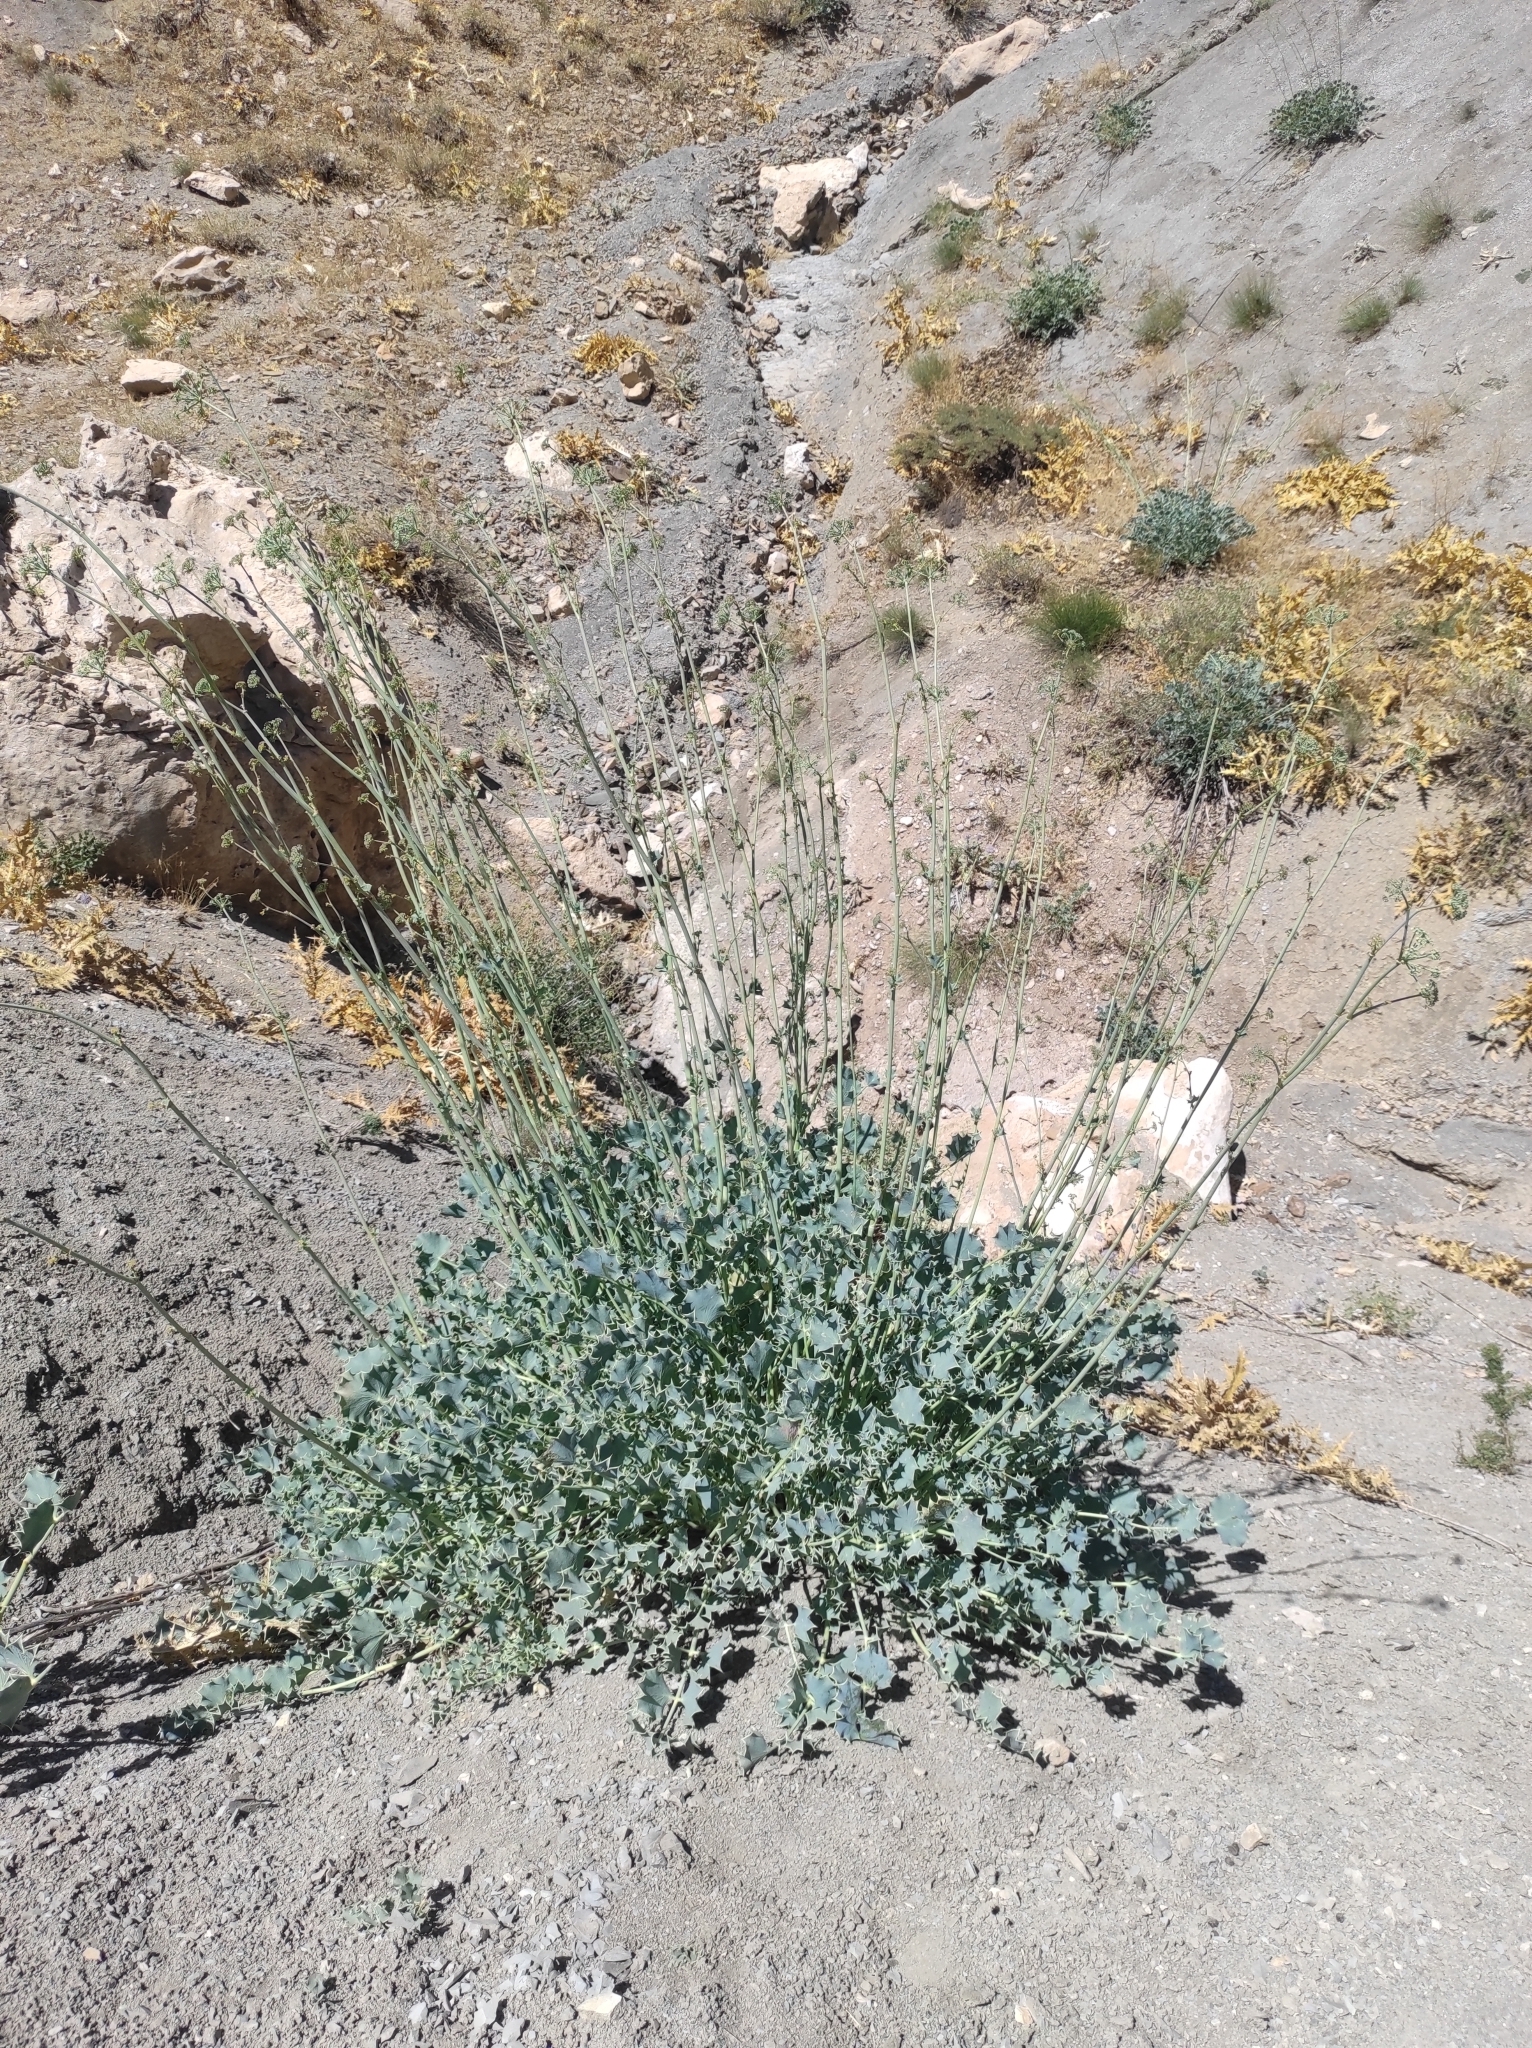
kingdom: Plantae
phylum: Tracheophyta
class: Magnoliopsida
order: Apiales
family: Apiaceae
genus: Azilia
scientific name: Azilia eryngioides
